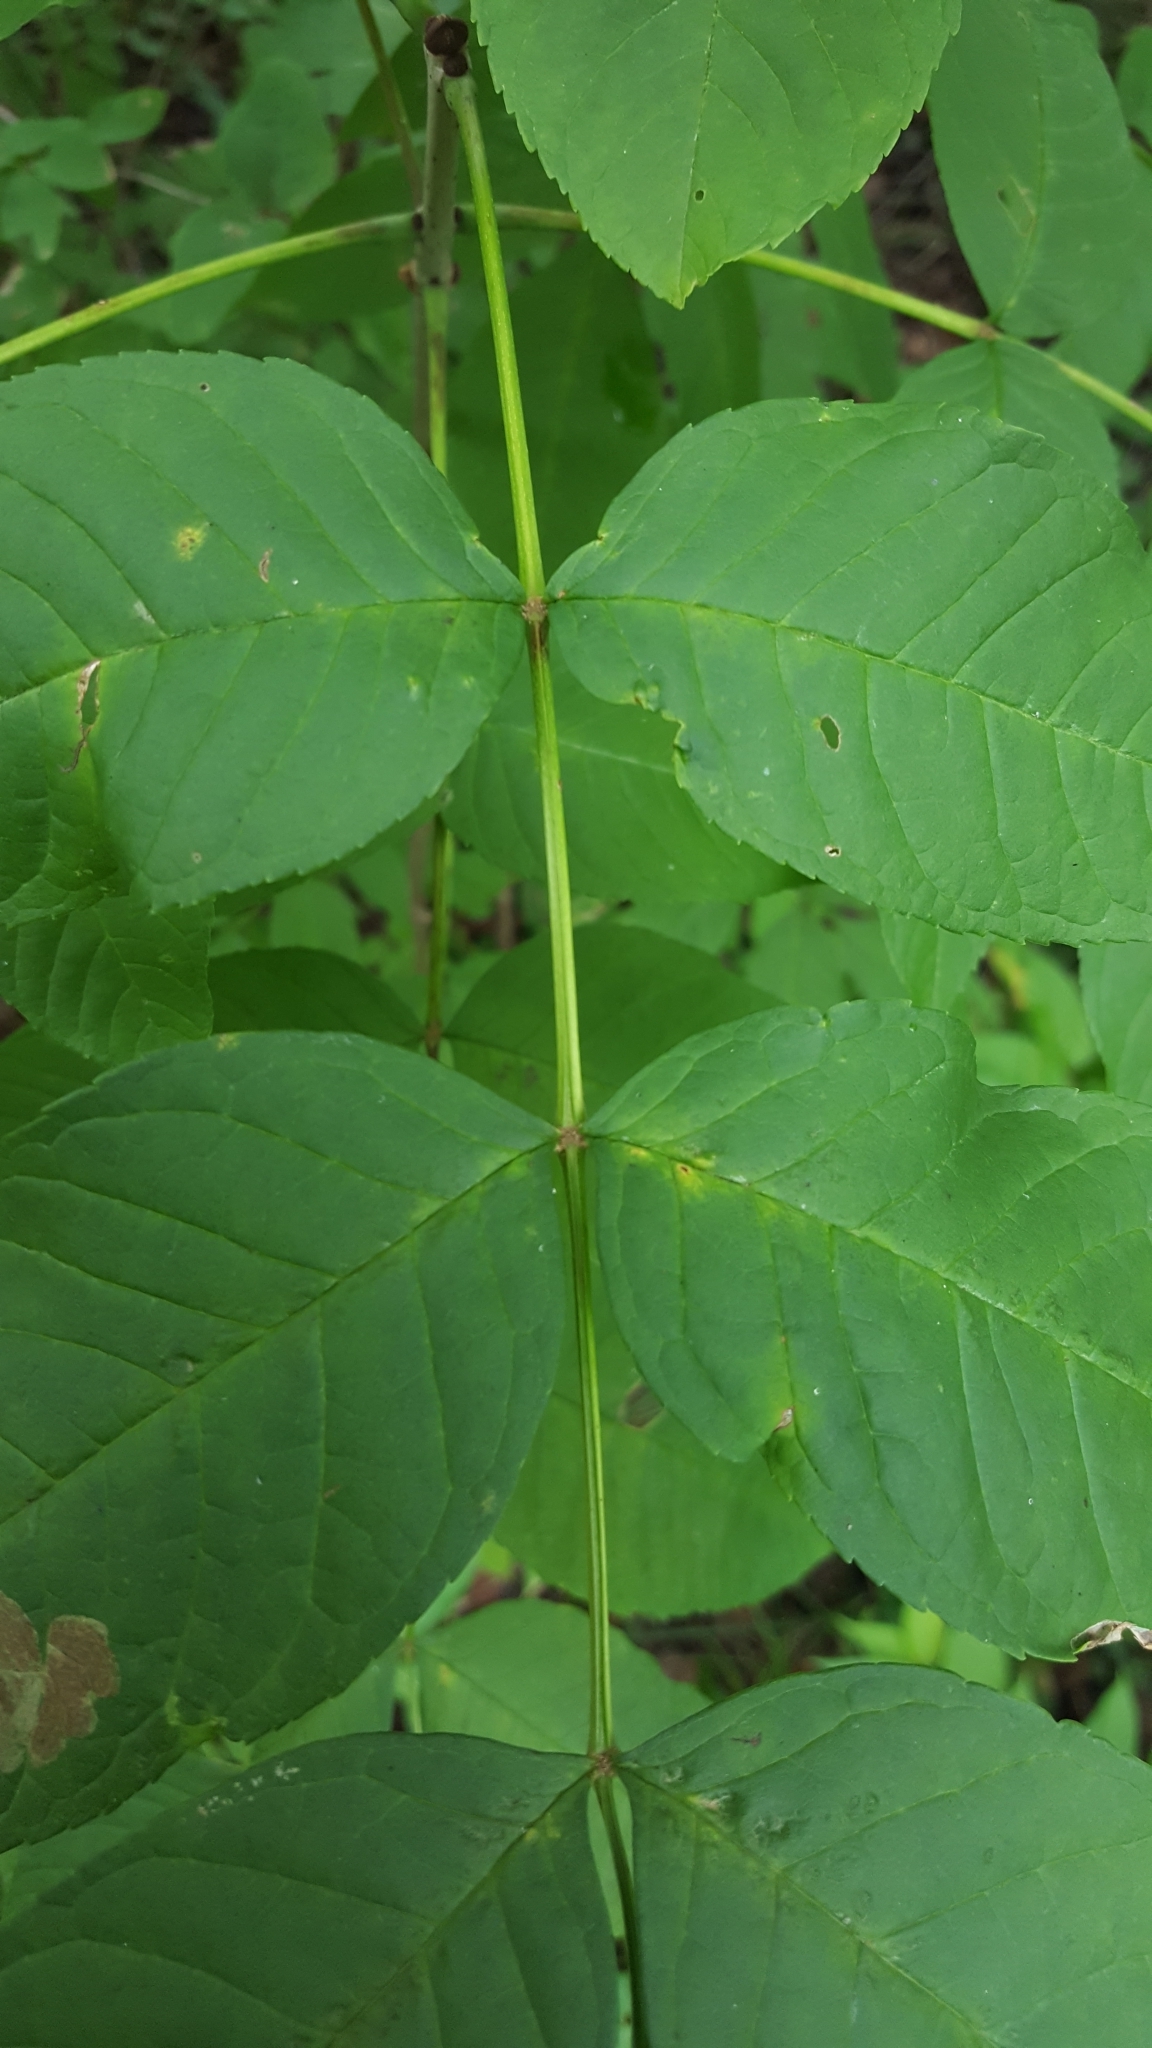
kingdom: Plantae
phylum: Tracheophyta
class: Magnoliopsida
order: Lamiales
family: Oleaceae
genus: Fraxinus
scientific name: Fraxinus nigra
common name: Black ash
